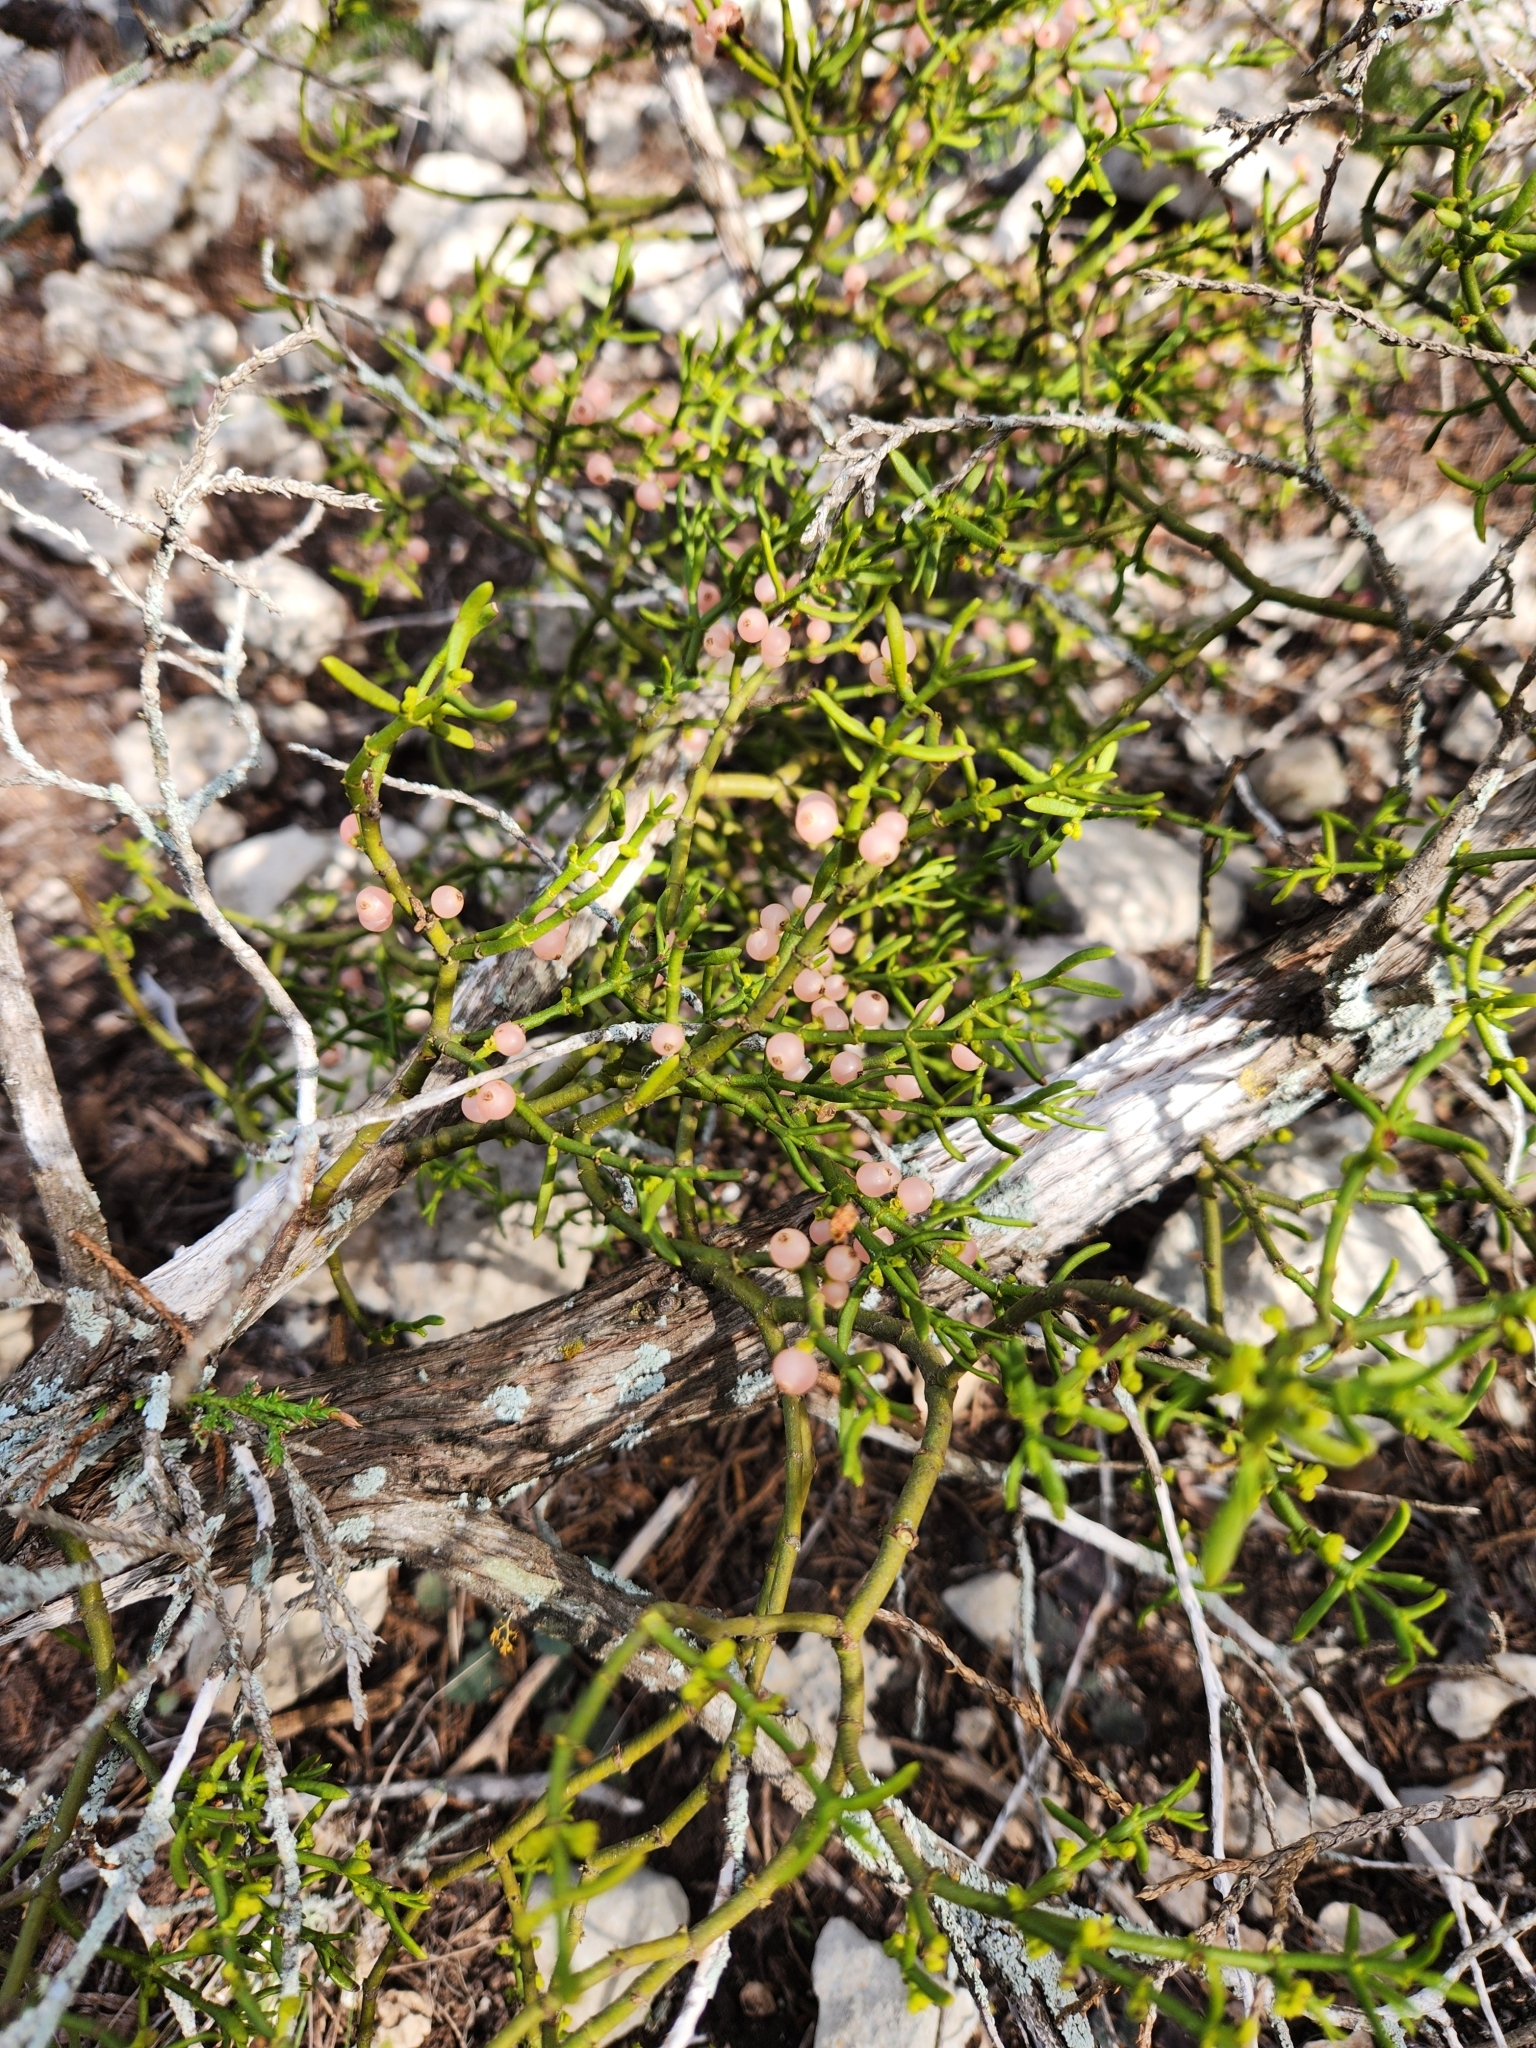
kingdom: Plantae
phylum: Tracheophyta
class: Magnoliopsida
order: Santalales
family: Viscaceae
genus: Phoradendron
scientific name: Phoradendron hawksworthii
